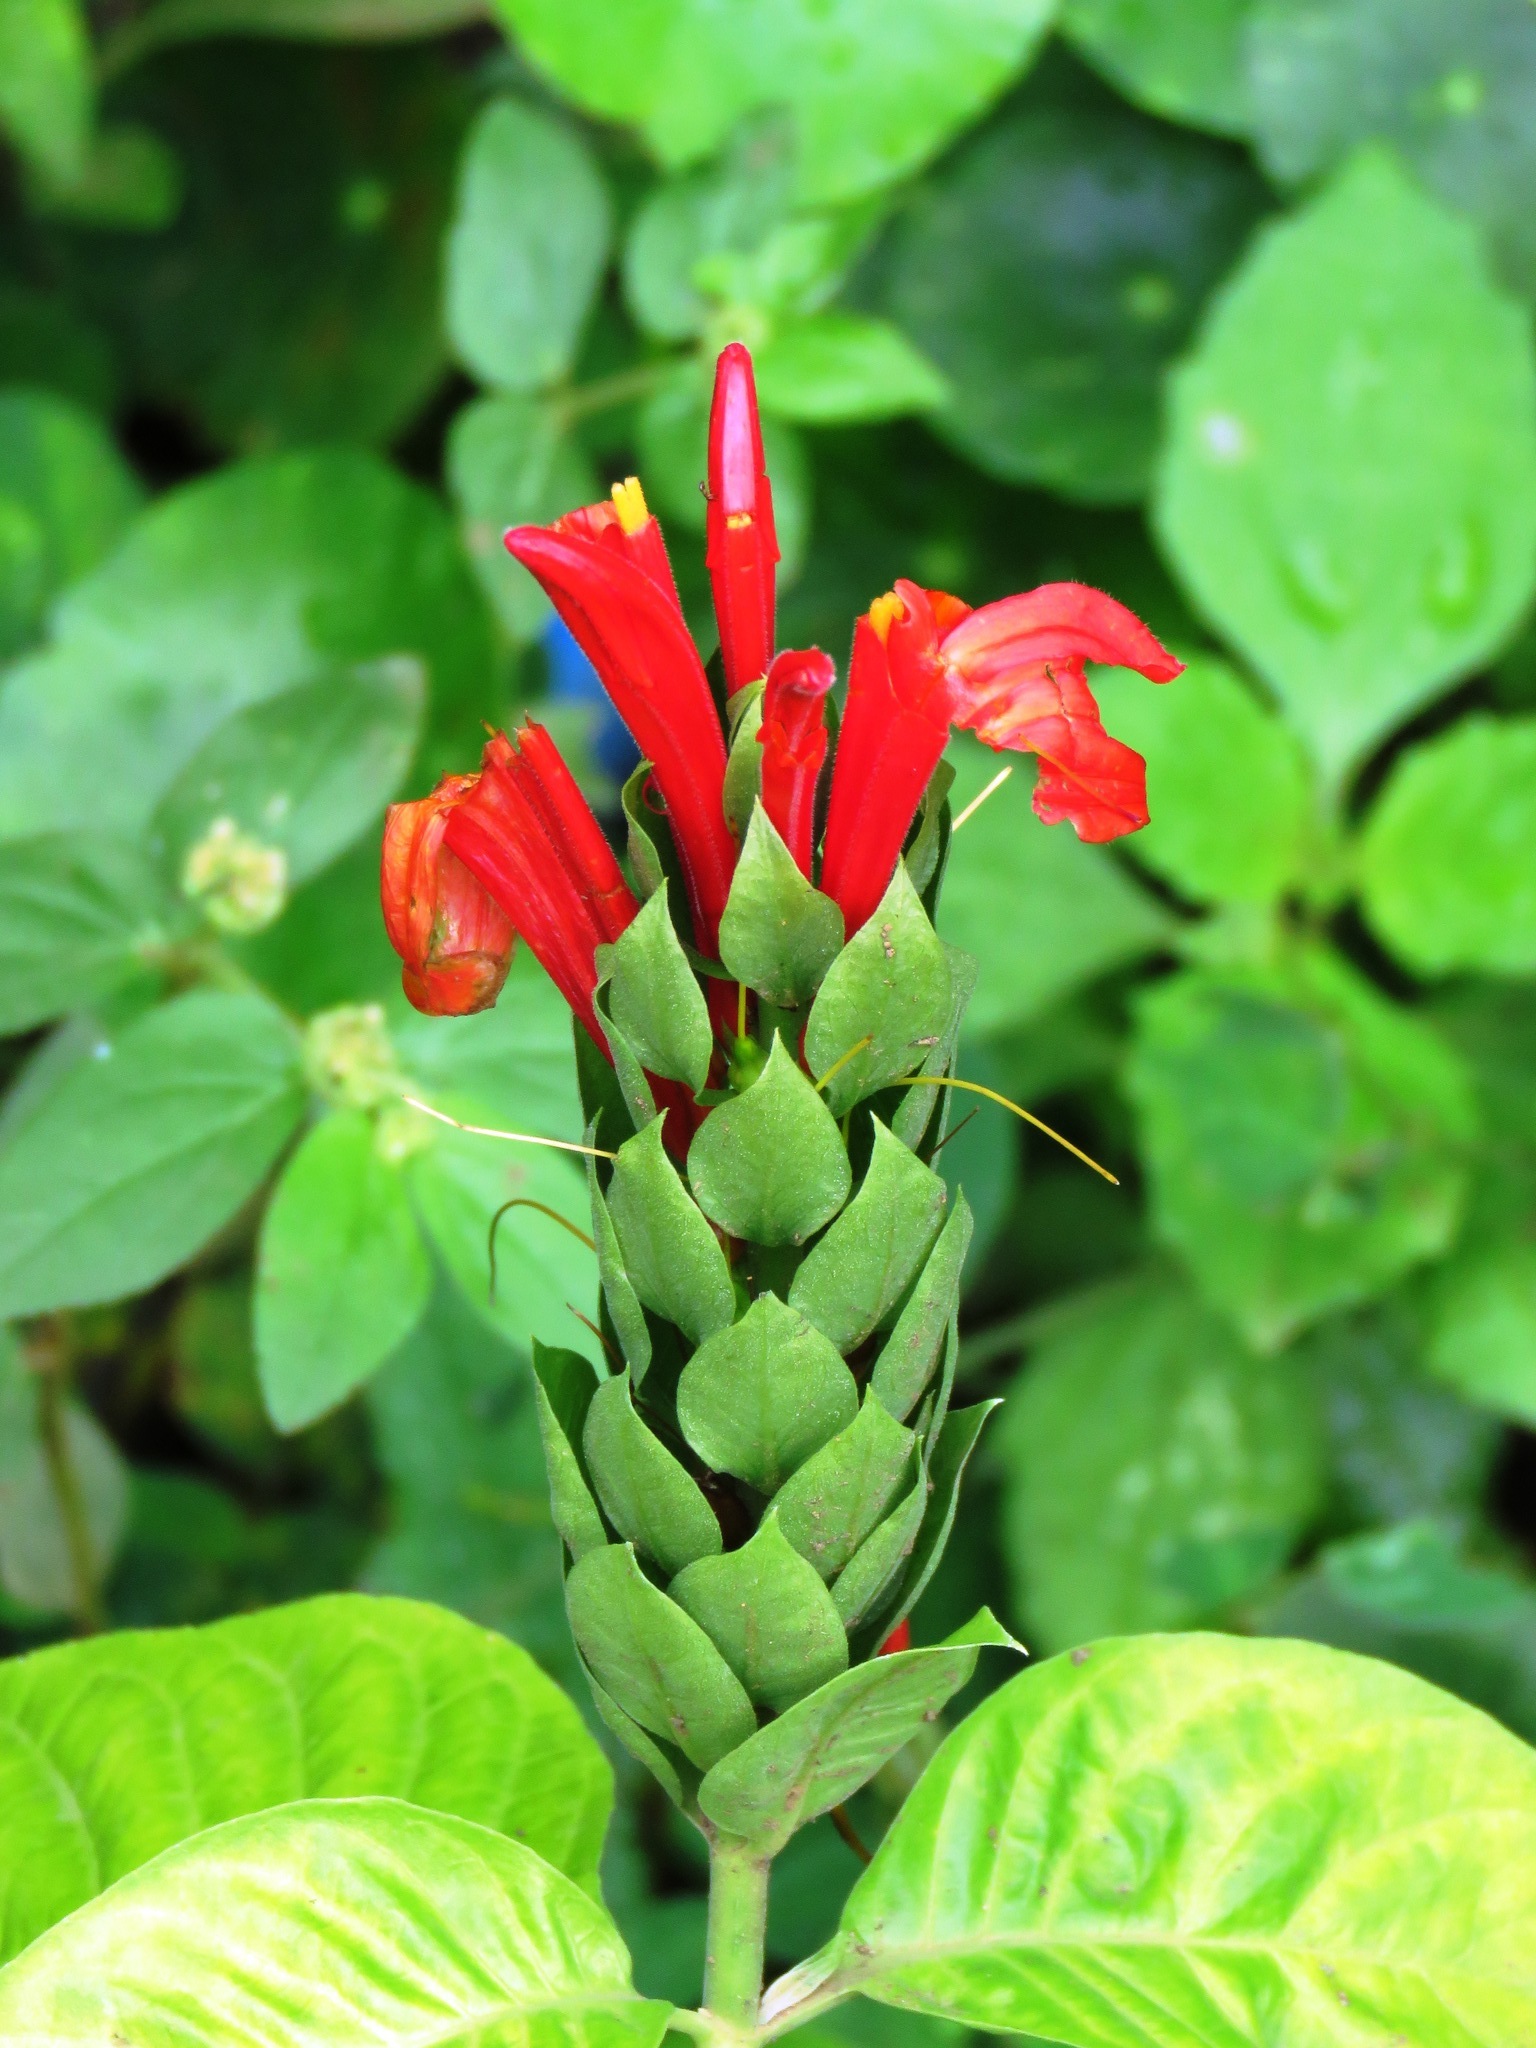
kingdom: Plantae
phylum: Tracheophyta
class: Magnoliopsida
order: Lamiales
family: Acanthaceae
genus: Pachystachys
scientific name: Pachystachys coccinea
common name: Cardinal's-guard
